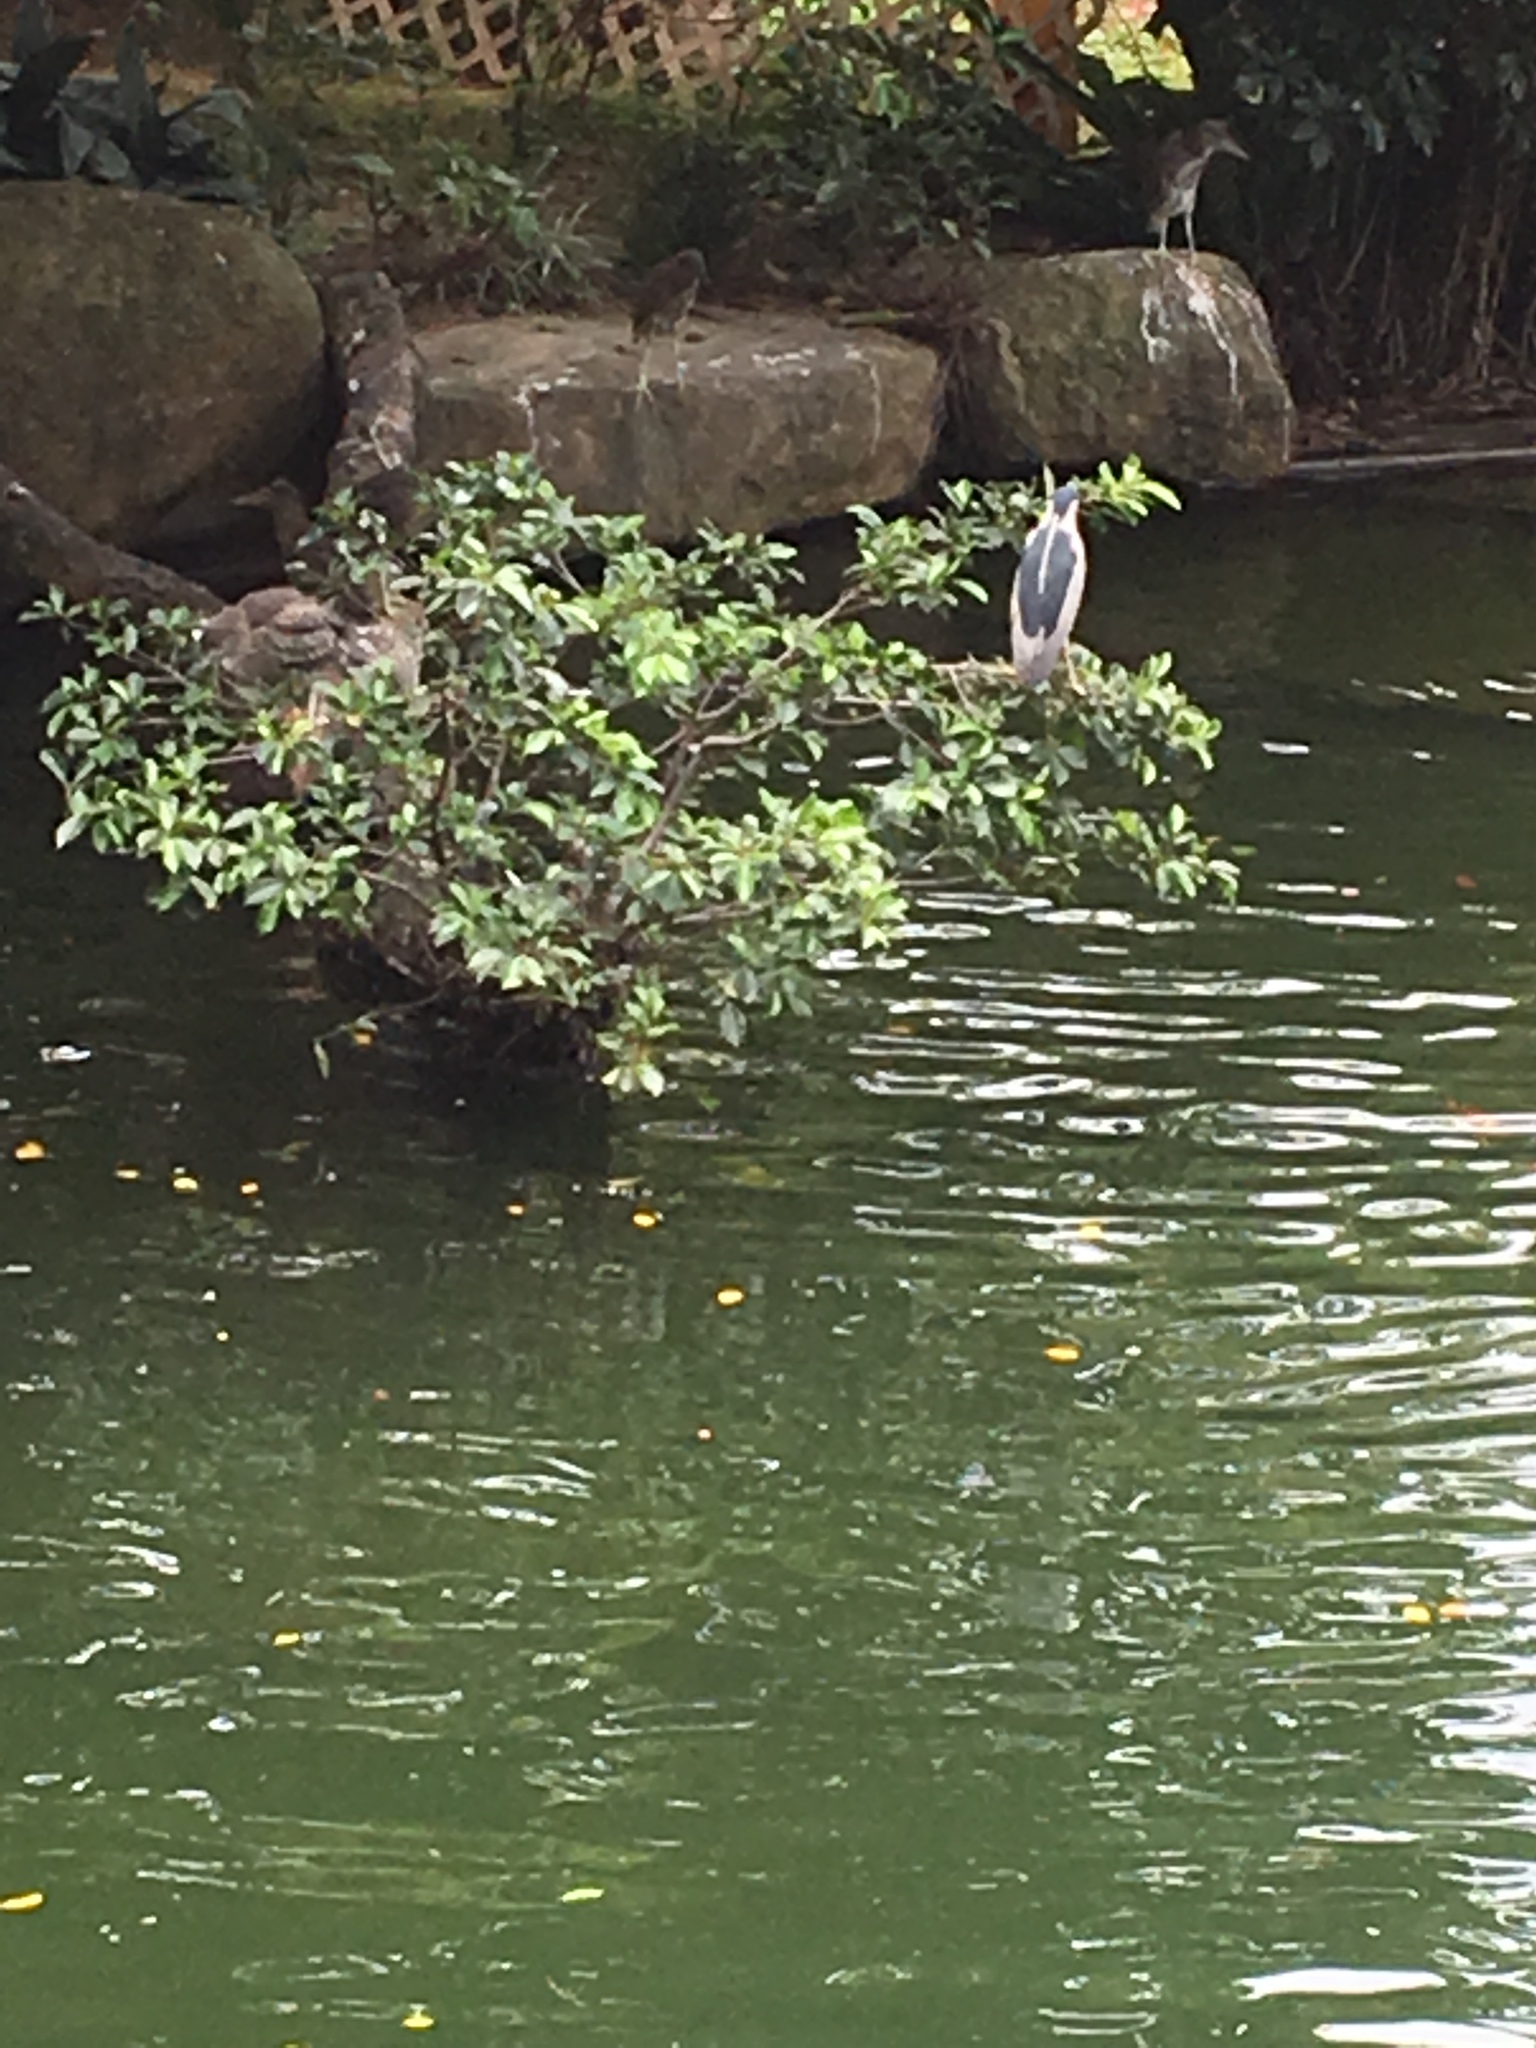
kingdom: Animalia
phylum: Chordata
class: Aves
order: Pelecaniformes
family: Ardeidae
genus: Nycticorax
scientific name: Nycticorax nycticorax
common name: Black-crowned night heron
